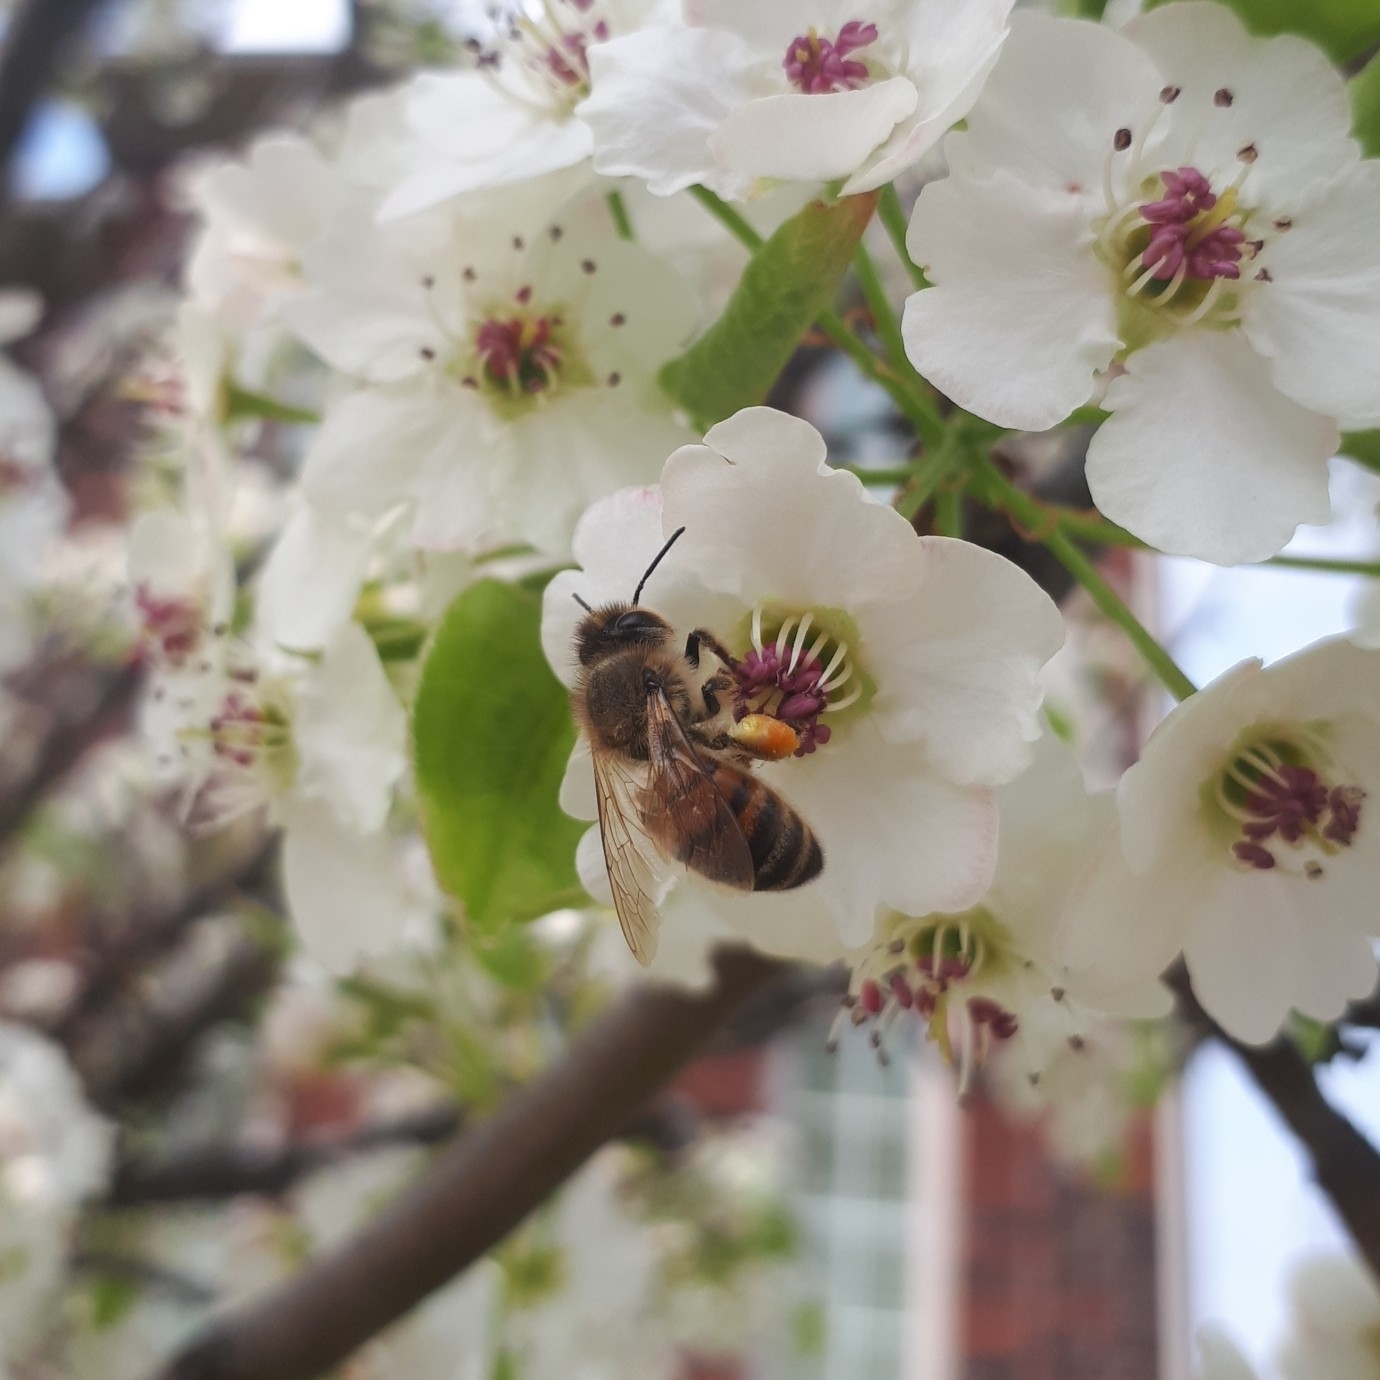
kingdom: Animalia
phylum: Arthropoda
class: Insecta
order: Hymenoptera
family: Apidae
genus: Apis
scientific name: Apis mellifera
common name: Honey bee
